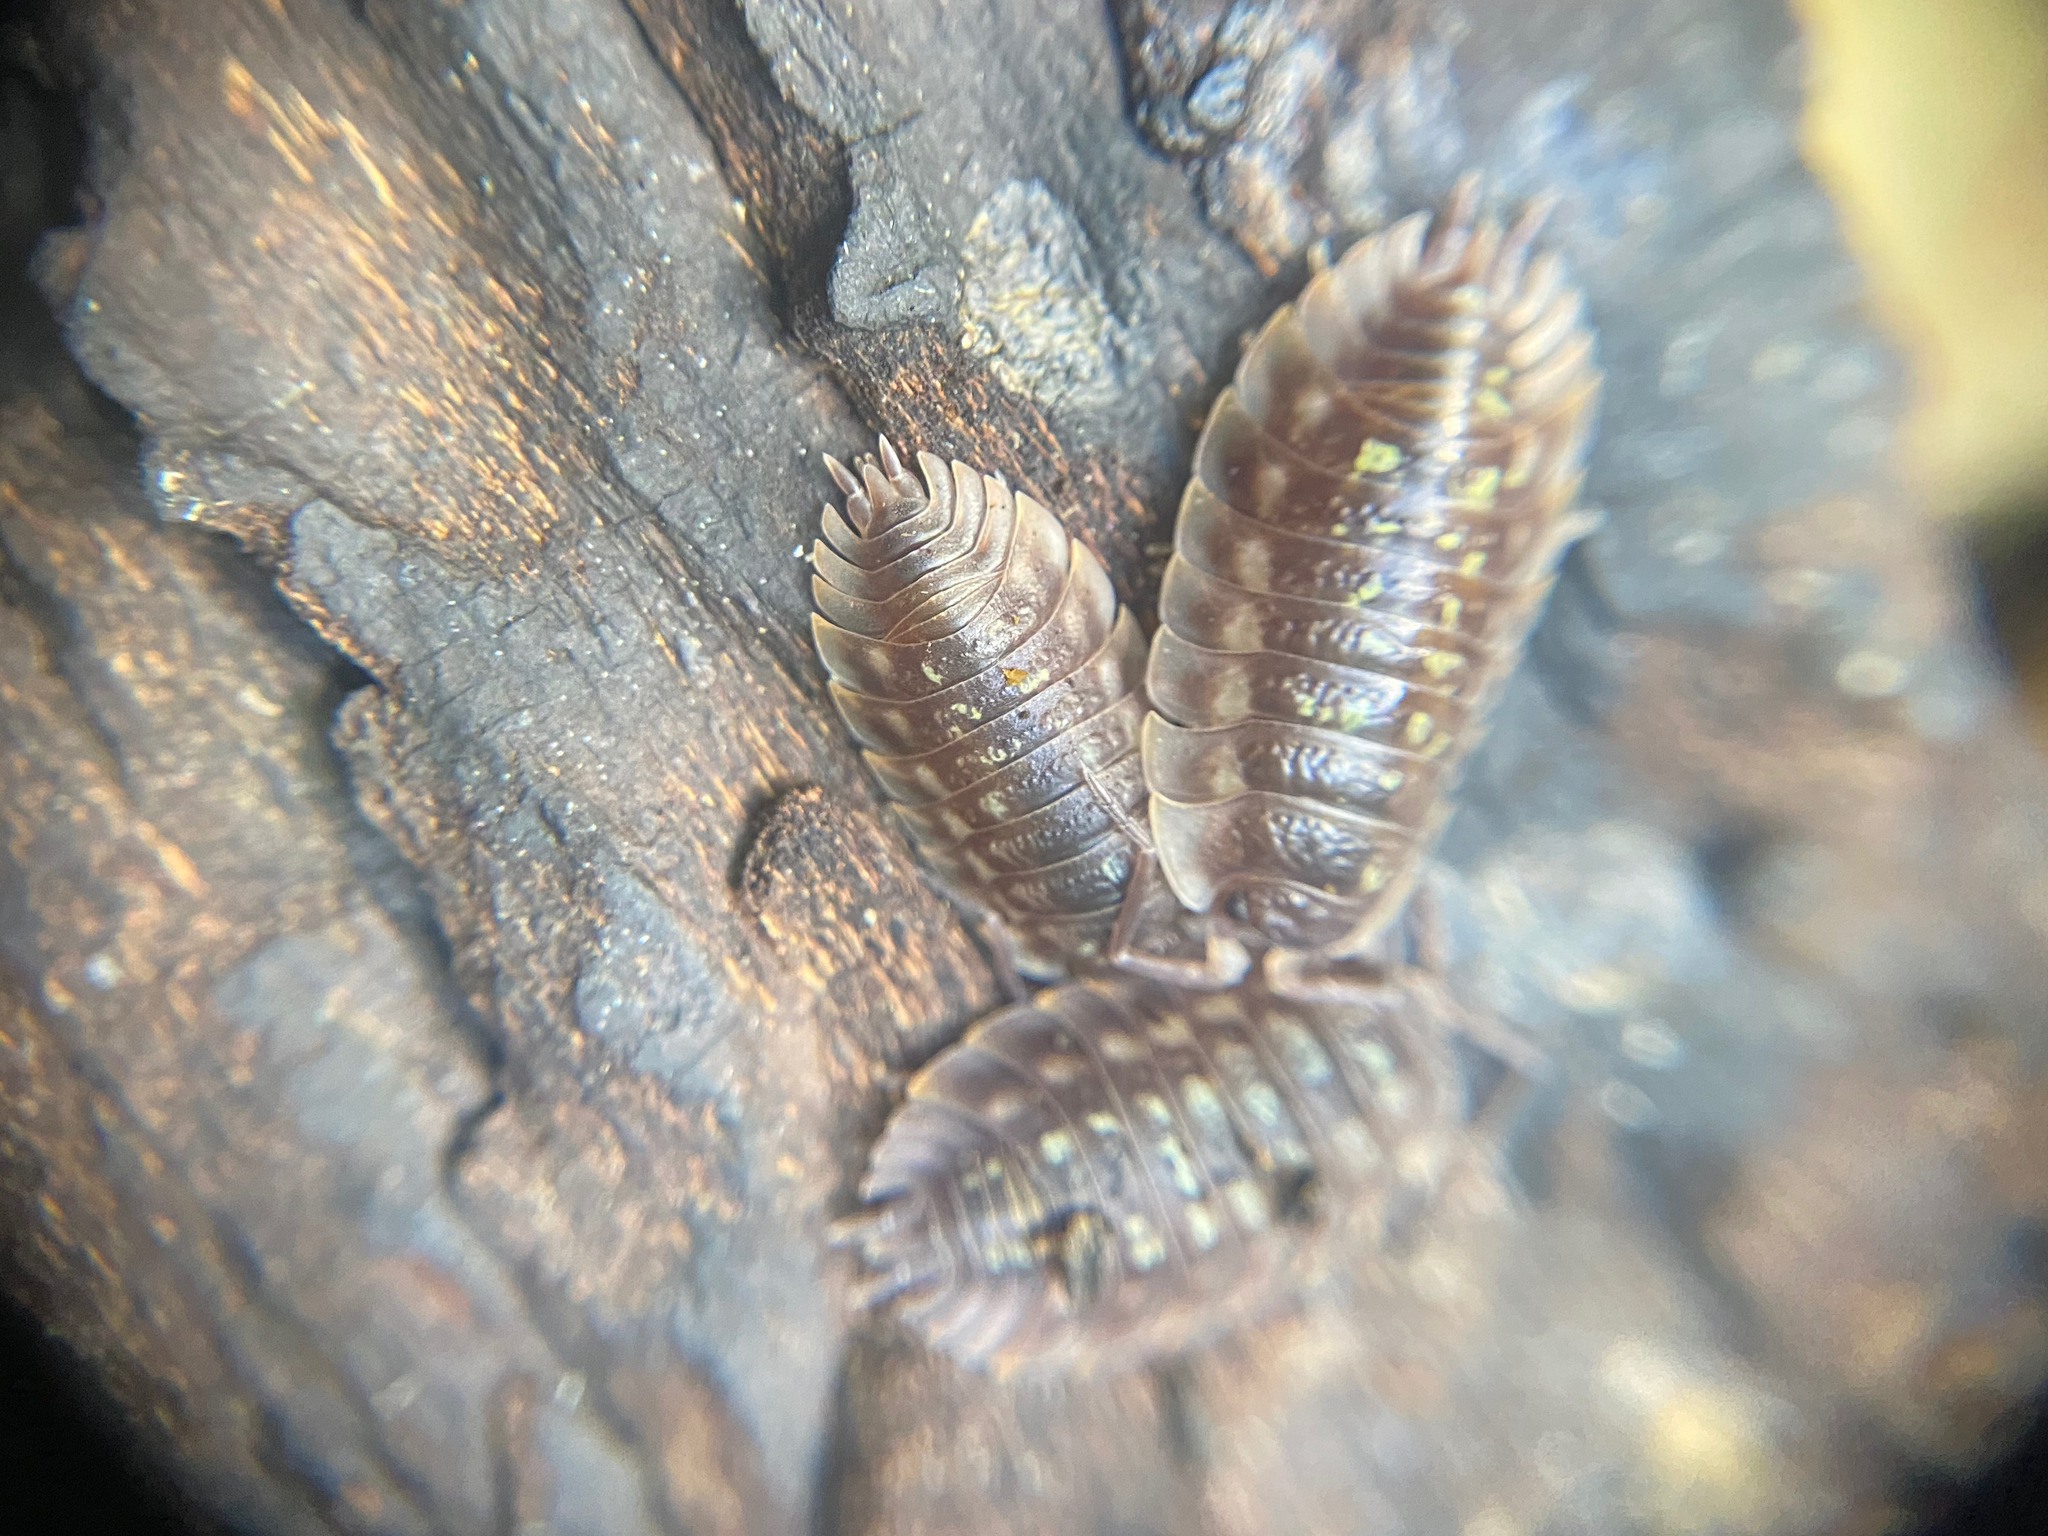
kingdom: Animalia
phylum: Arthropoda
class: Malacostraca
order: Isopoda
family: Oniscidae
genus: Oniscus
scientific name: Oniscus asellus
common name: Common shiny woodlouse
